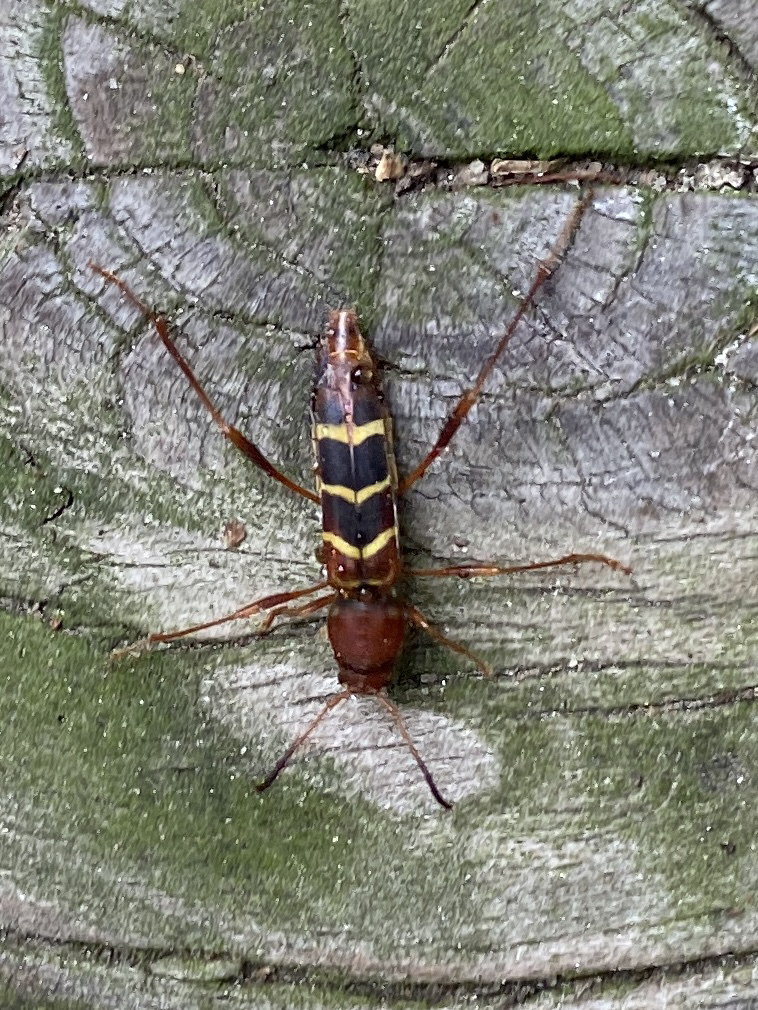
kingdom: Animalia
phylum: Arthropoda
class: Insecta
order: Coleoptera
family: Cerambycidae
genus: Neoclytus
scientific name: Neoclytus acuminatus
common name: Read-headed ash borer
